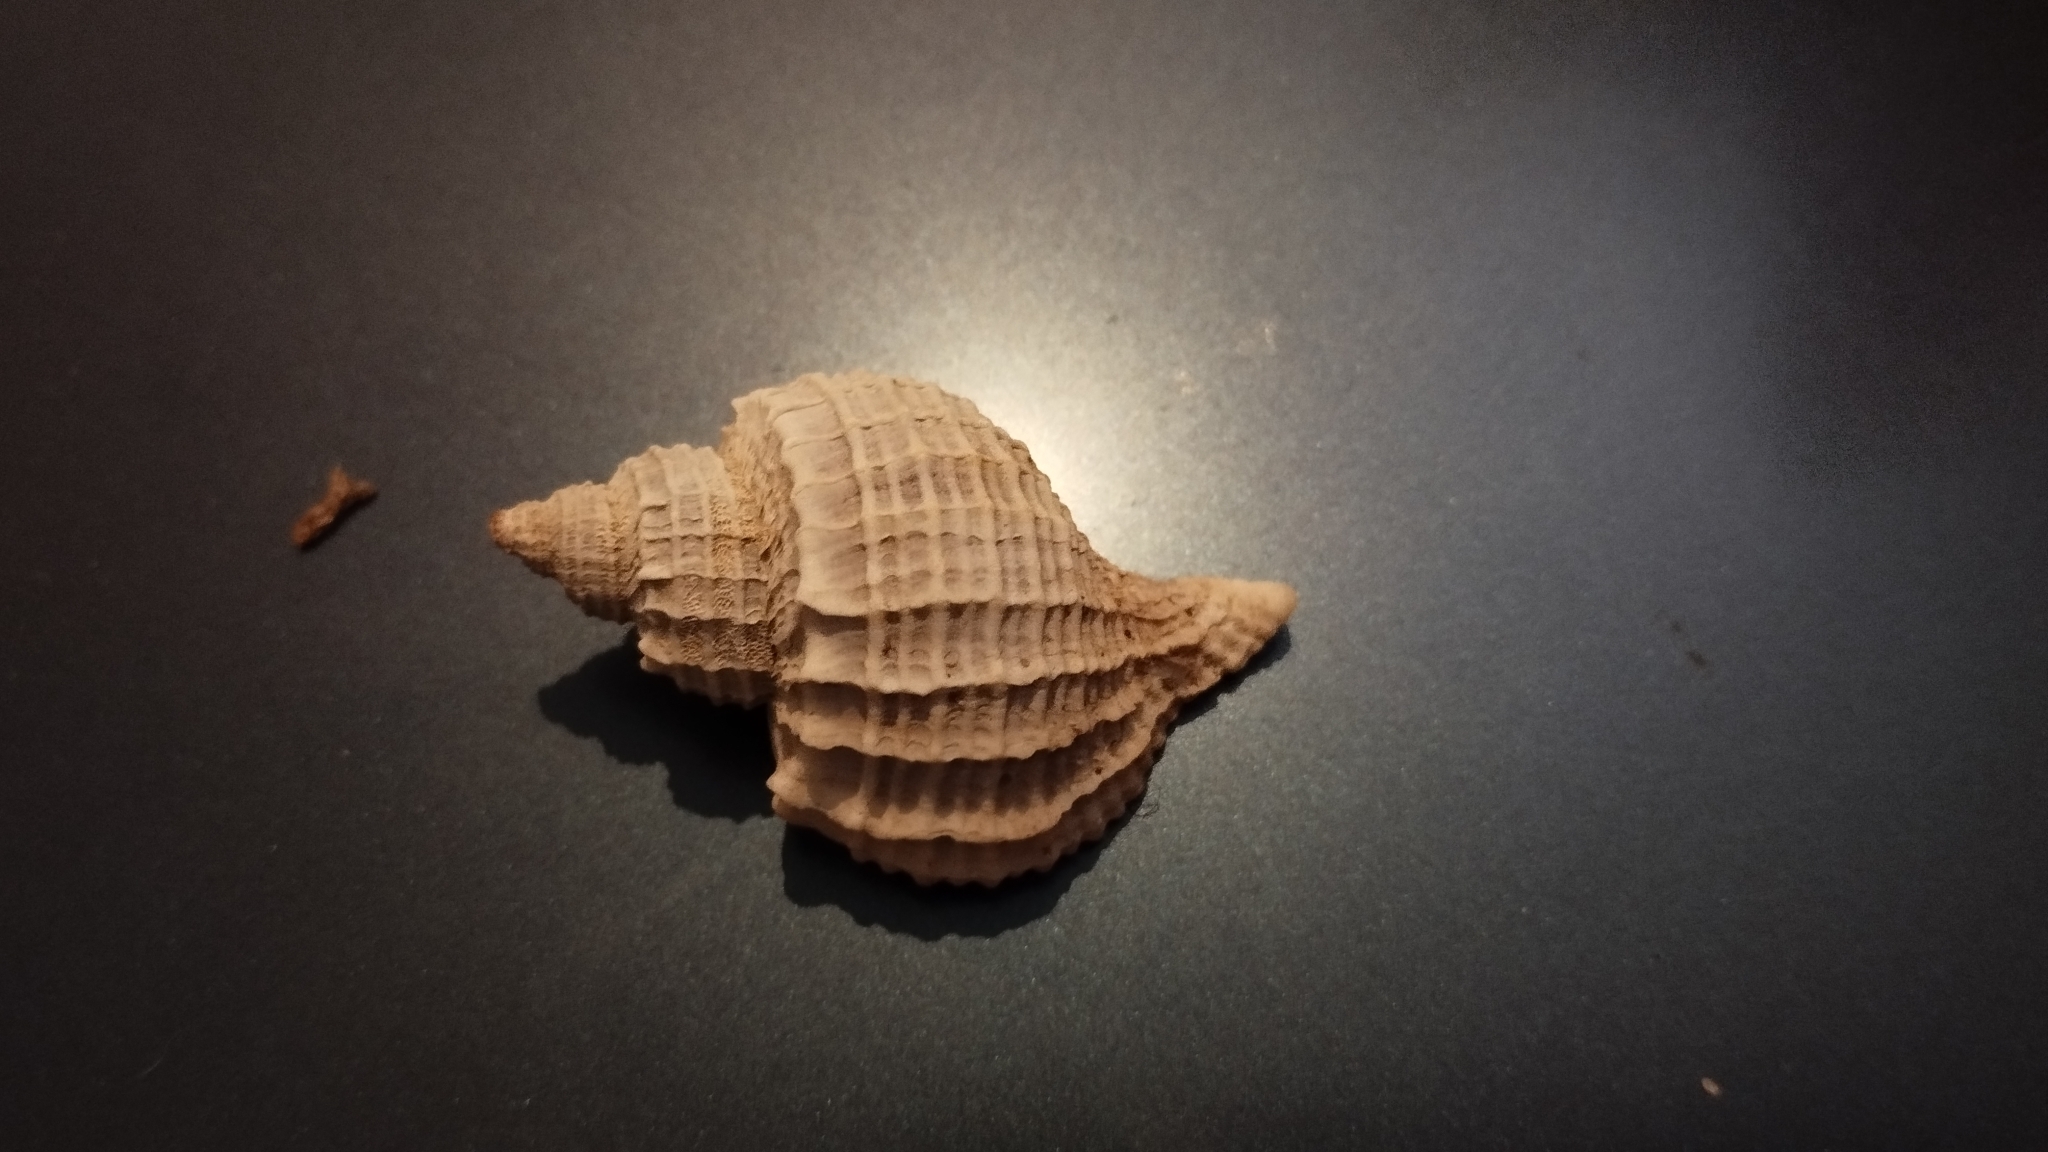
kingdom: Animalia
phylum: Mollusca
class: Gastropoda
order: Neogastropoda
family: Muricidae
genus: Trophon
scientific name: Trophon geversianus
